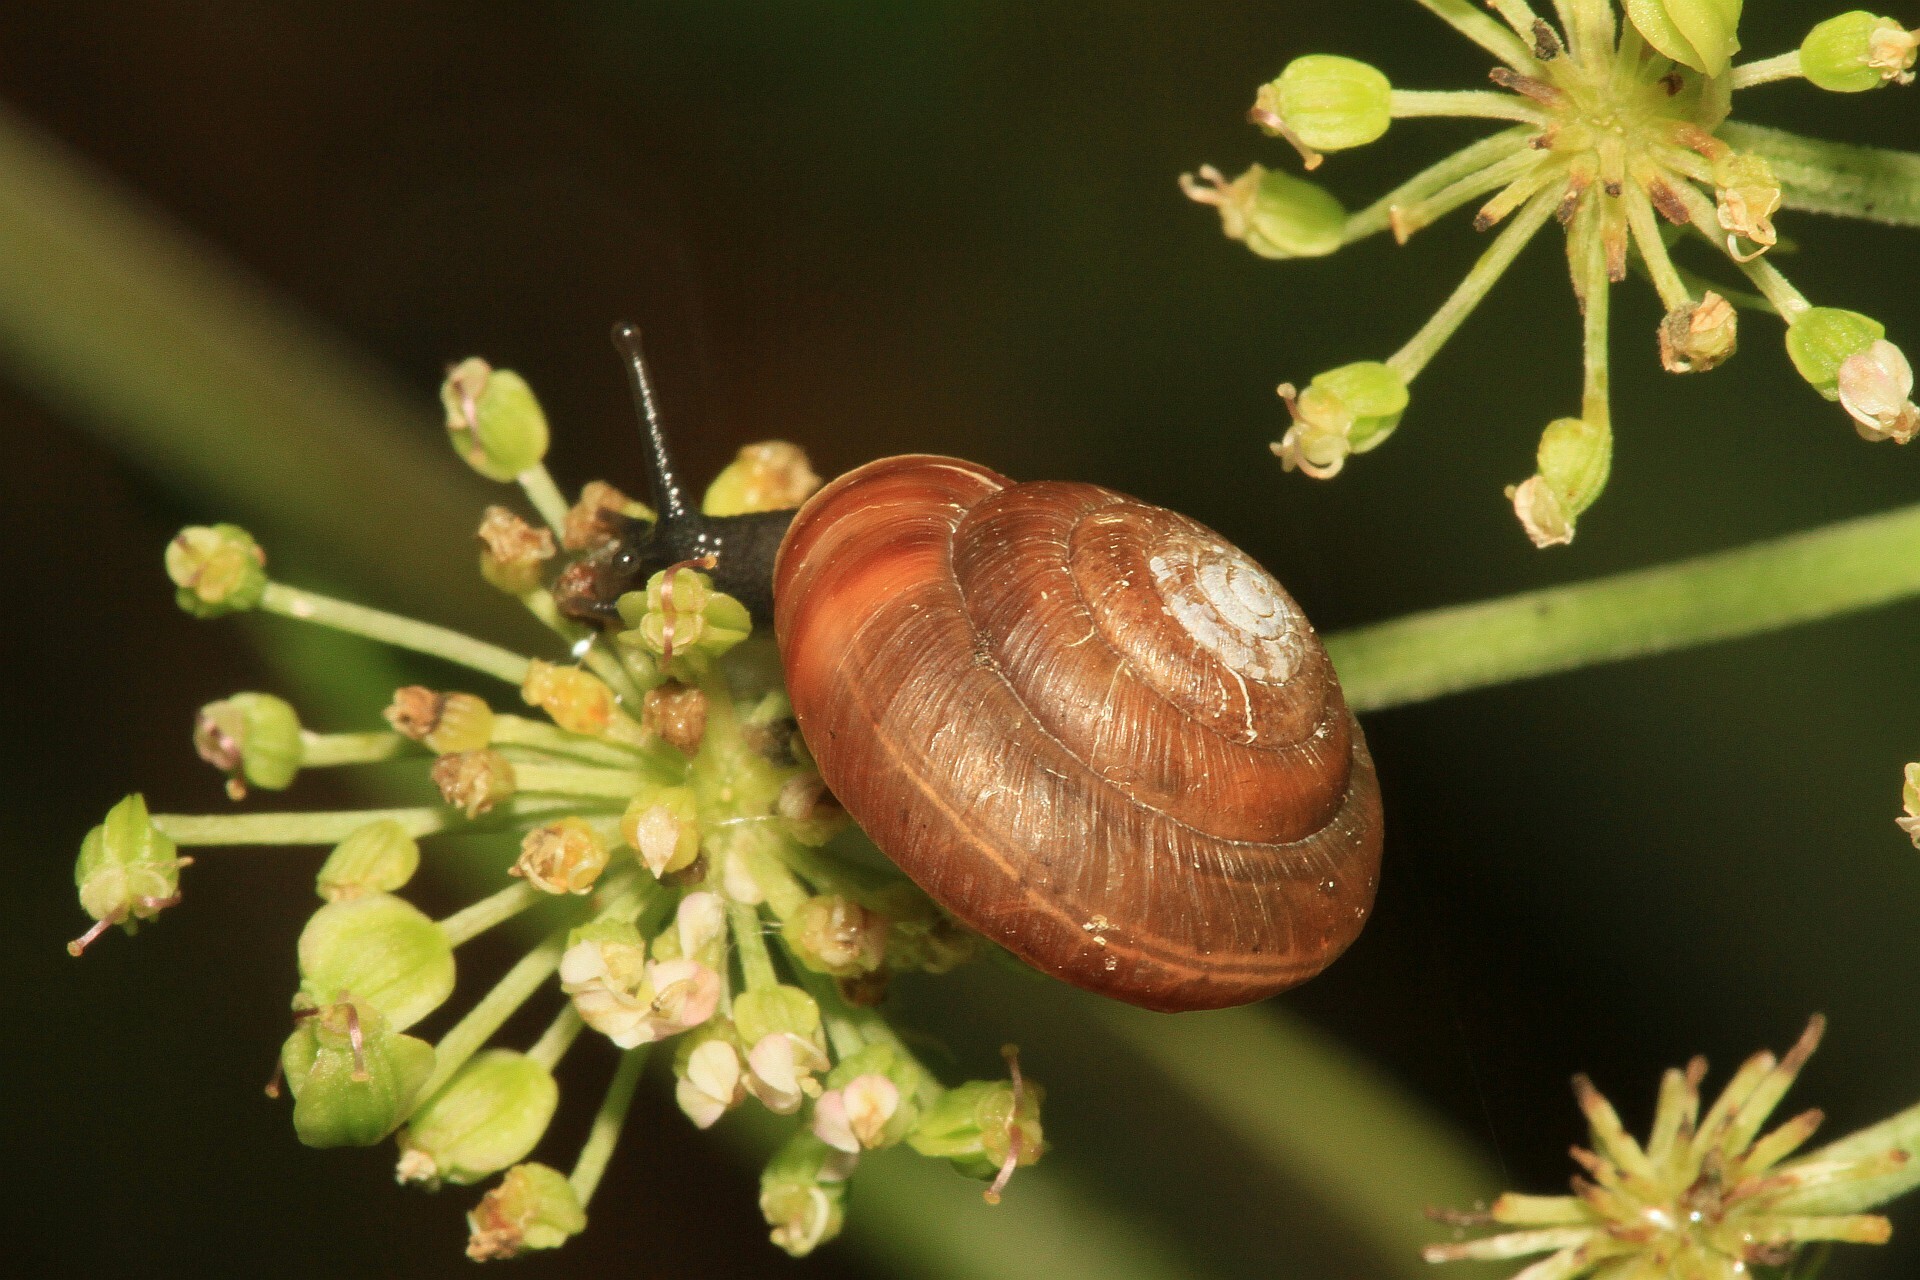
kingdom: Animalia
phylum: Mollusca
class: Gastropoda
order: Stylommatophora
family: Hygromiidae
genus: Trochulus
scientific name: Trochulus striolatus
